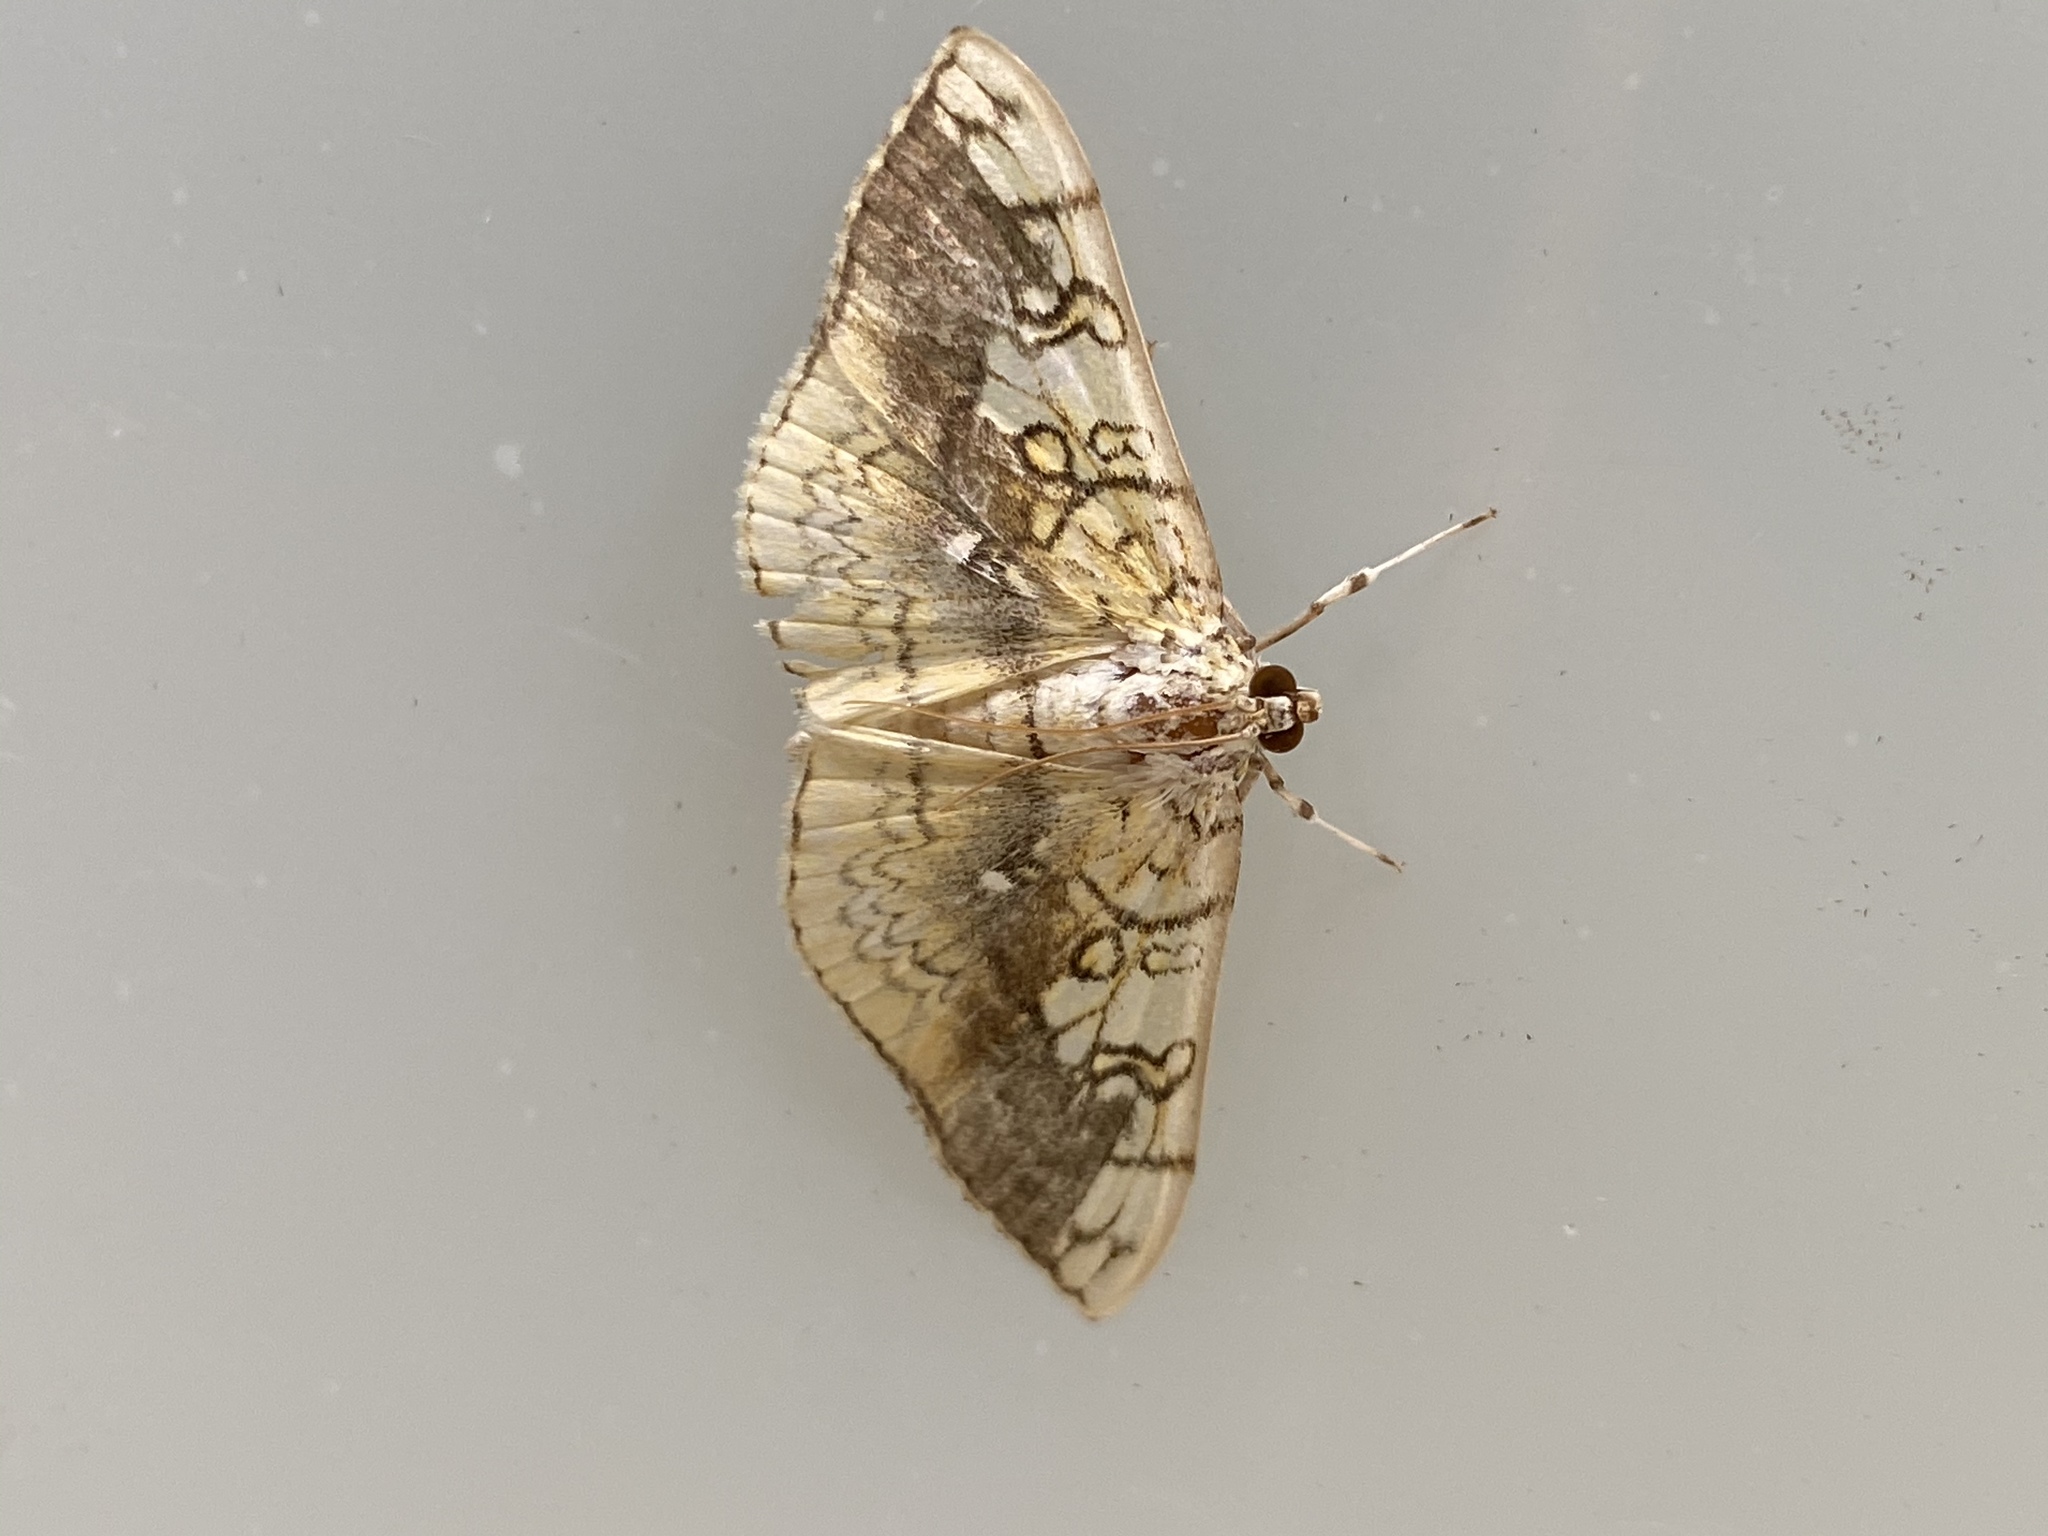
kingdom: Animalia
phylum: Arthropoda
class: Insecta
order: Lepidoptera
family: Crambidae
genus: Pantographa
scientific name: Pantographa limata
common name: Basswood leafroller moth
